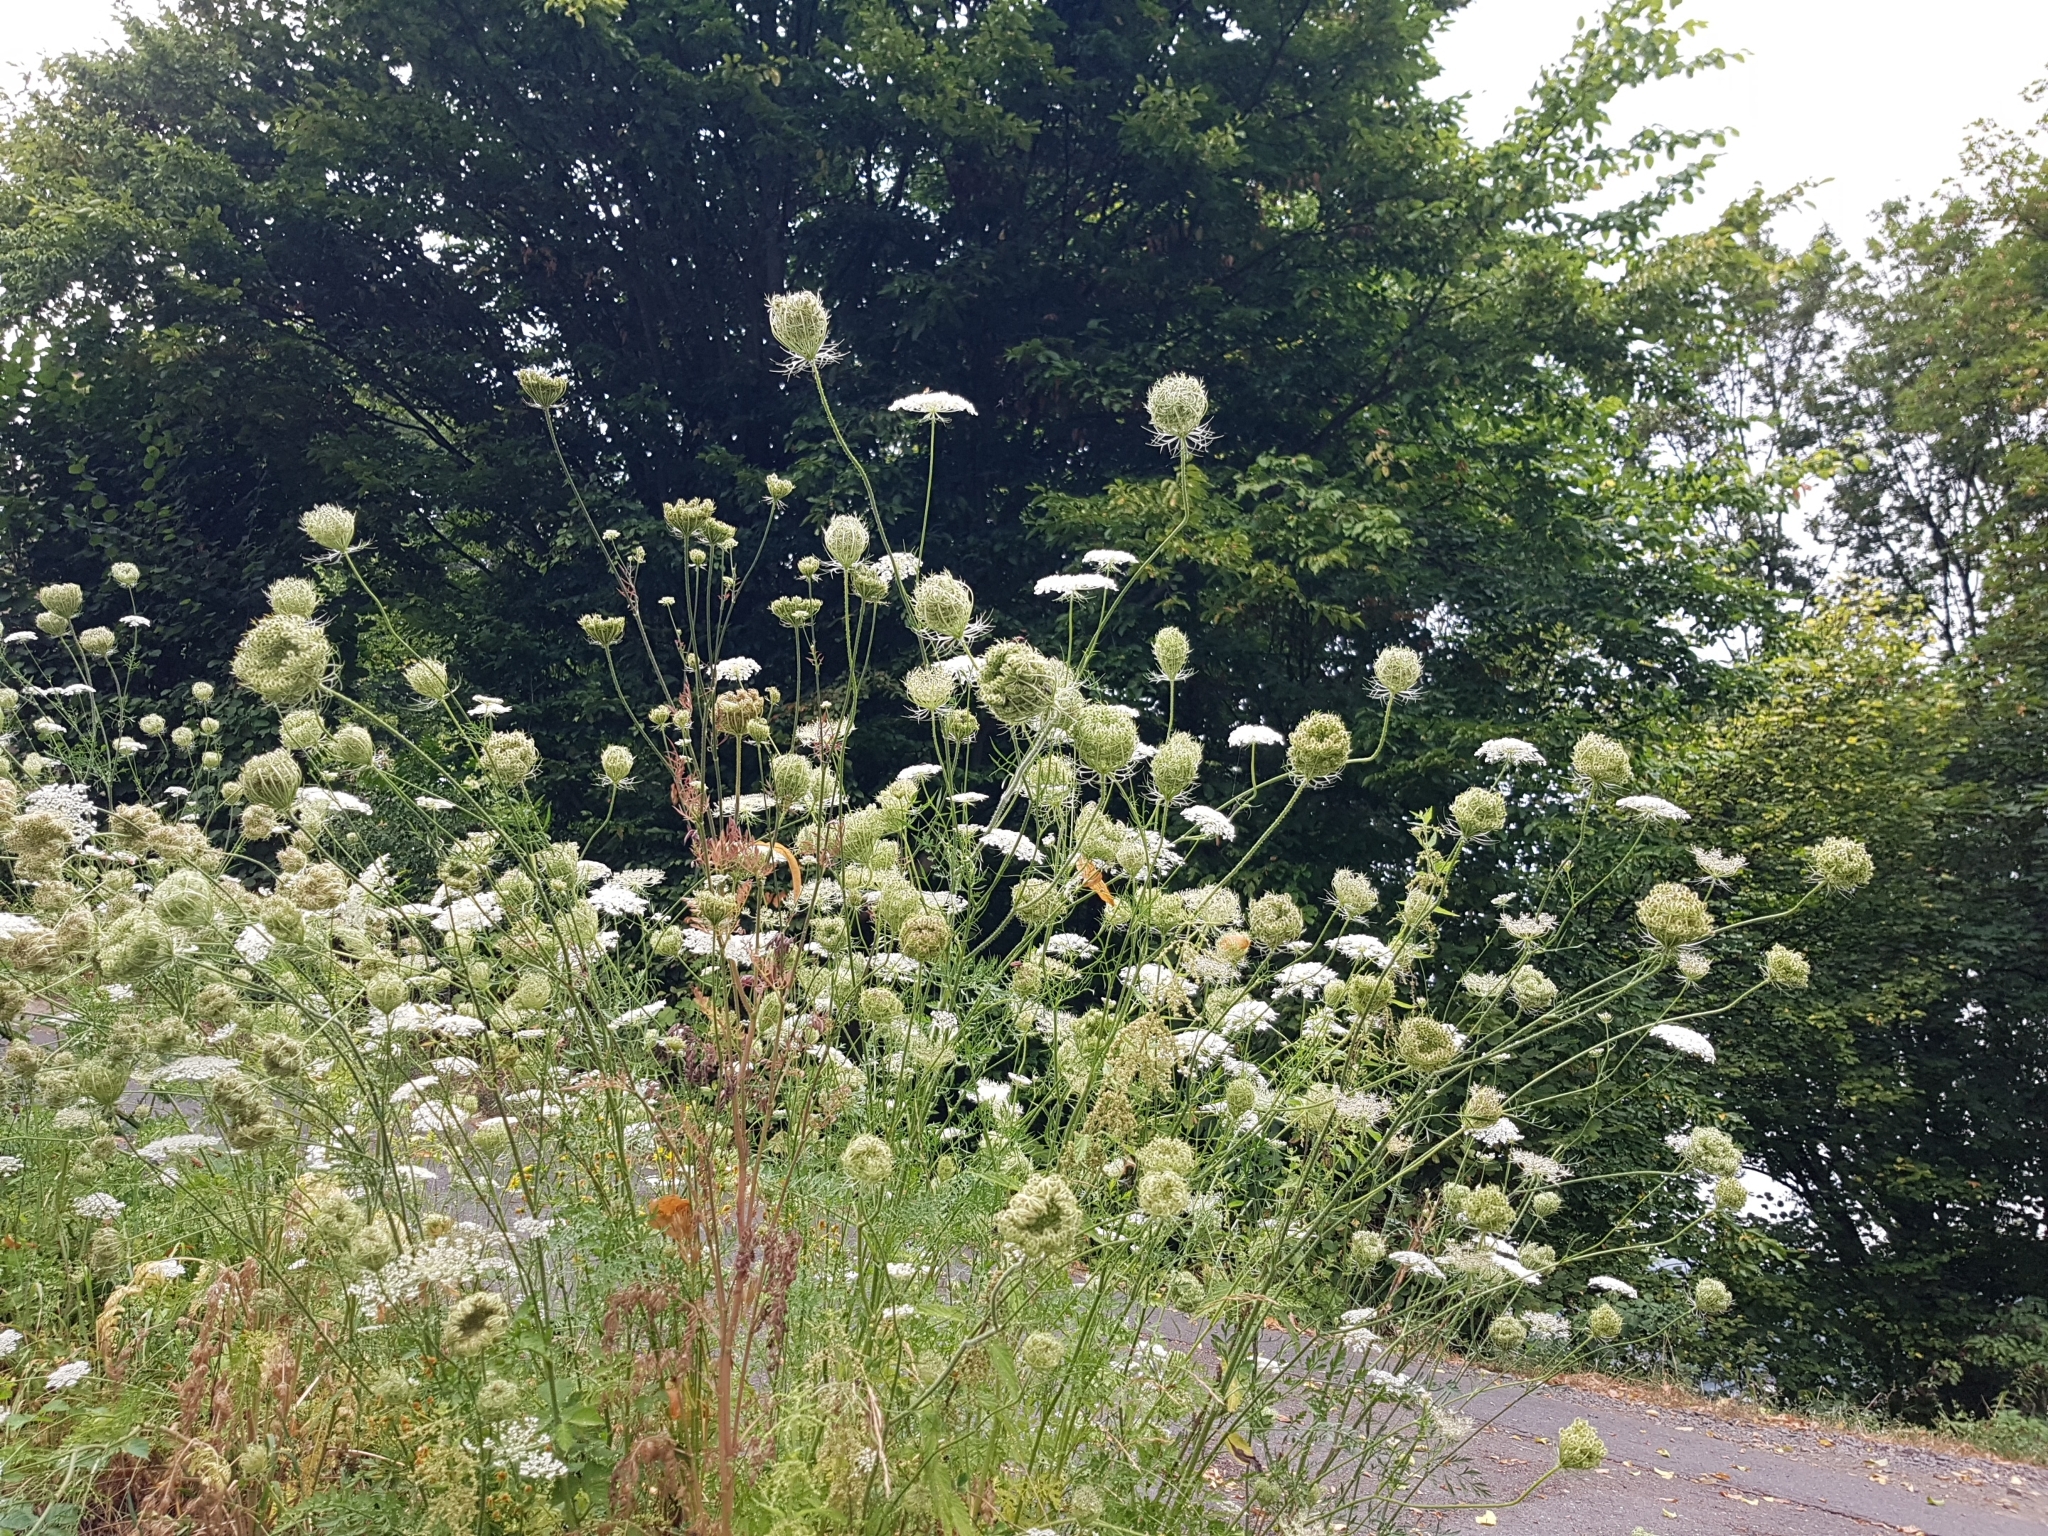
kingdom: Plantae
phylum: Tracheophyta
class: Magnoliopsida
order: Apiales
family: Apiaceae
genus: Daucus
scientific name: Daucus carota
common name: Wild carrot
